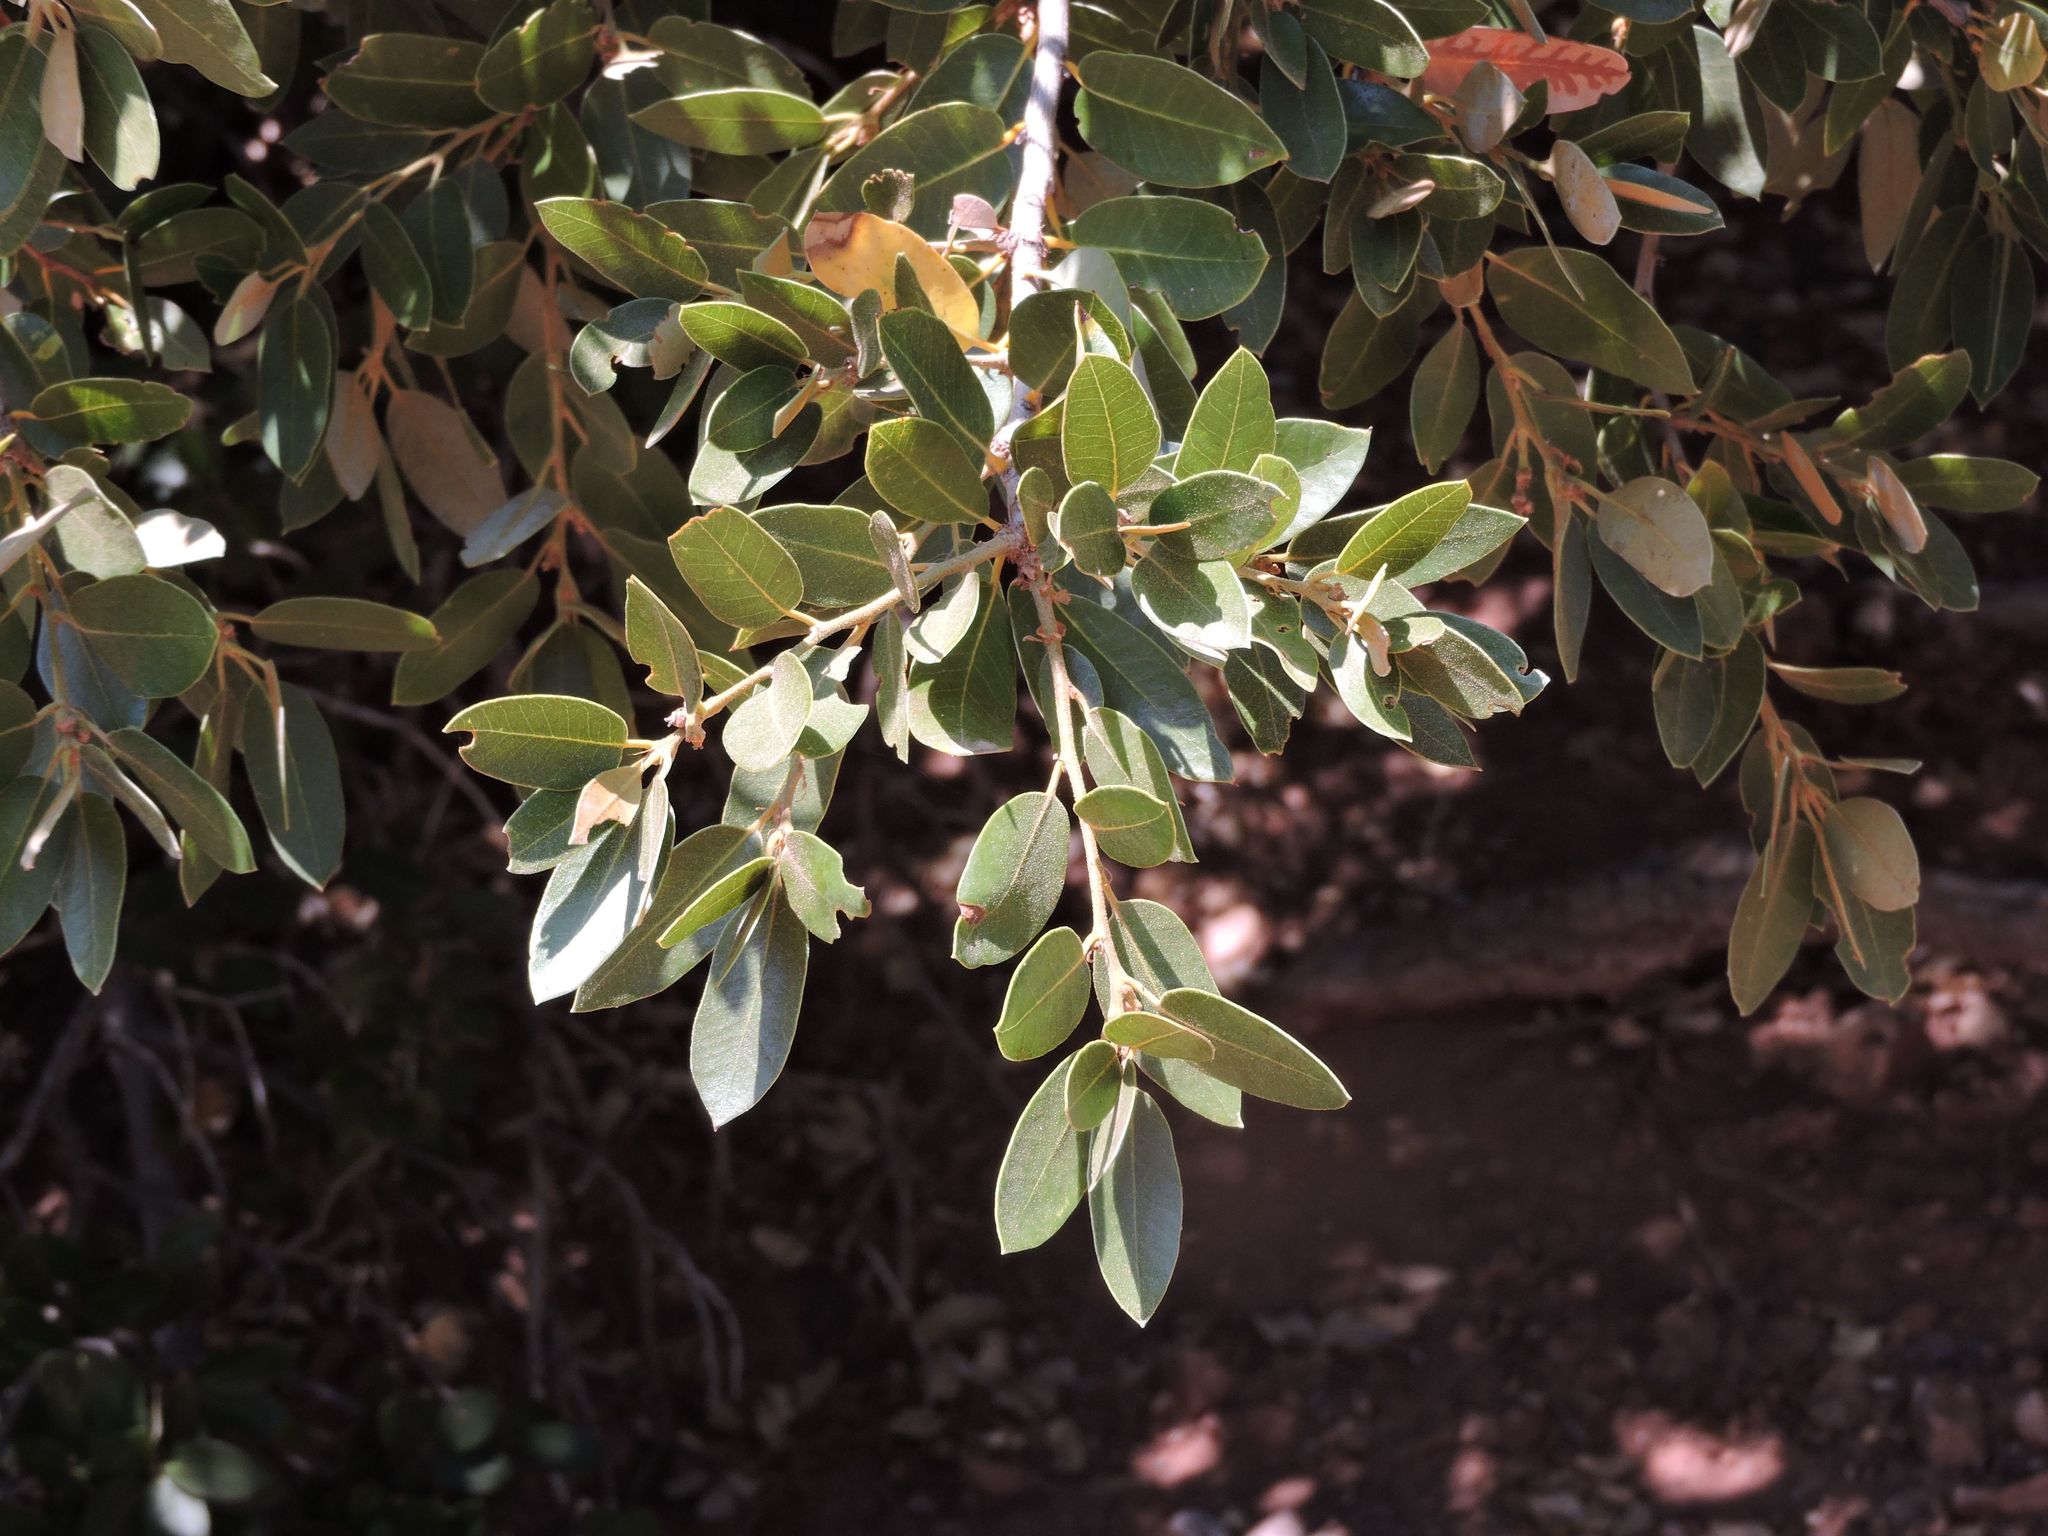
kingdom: Plantae
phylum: Tracheophyta
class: Magnoliopsida
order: Fagales
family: Fagaceae
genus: Quercus
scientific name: Quercus chrysolepis
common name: Canyon live oak
